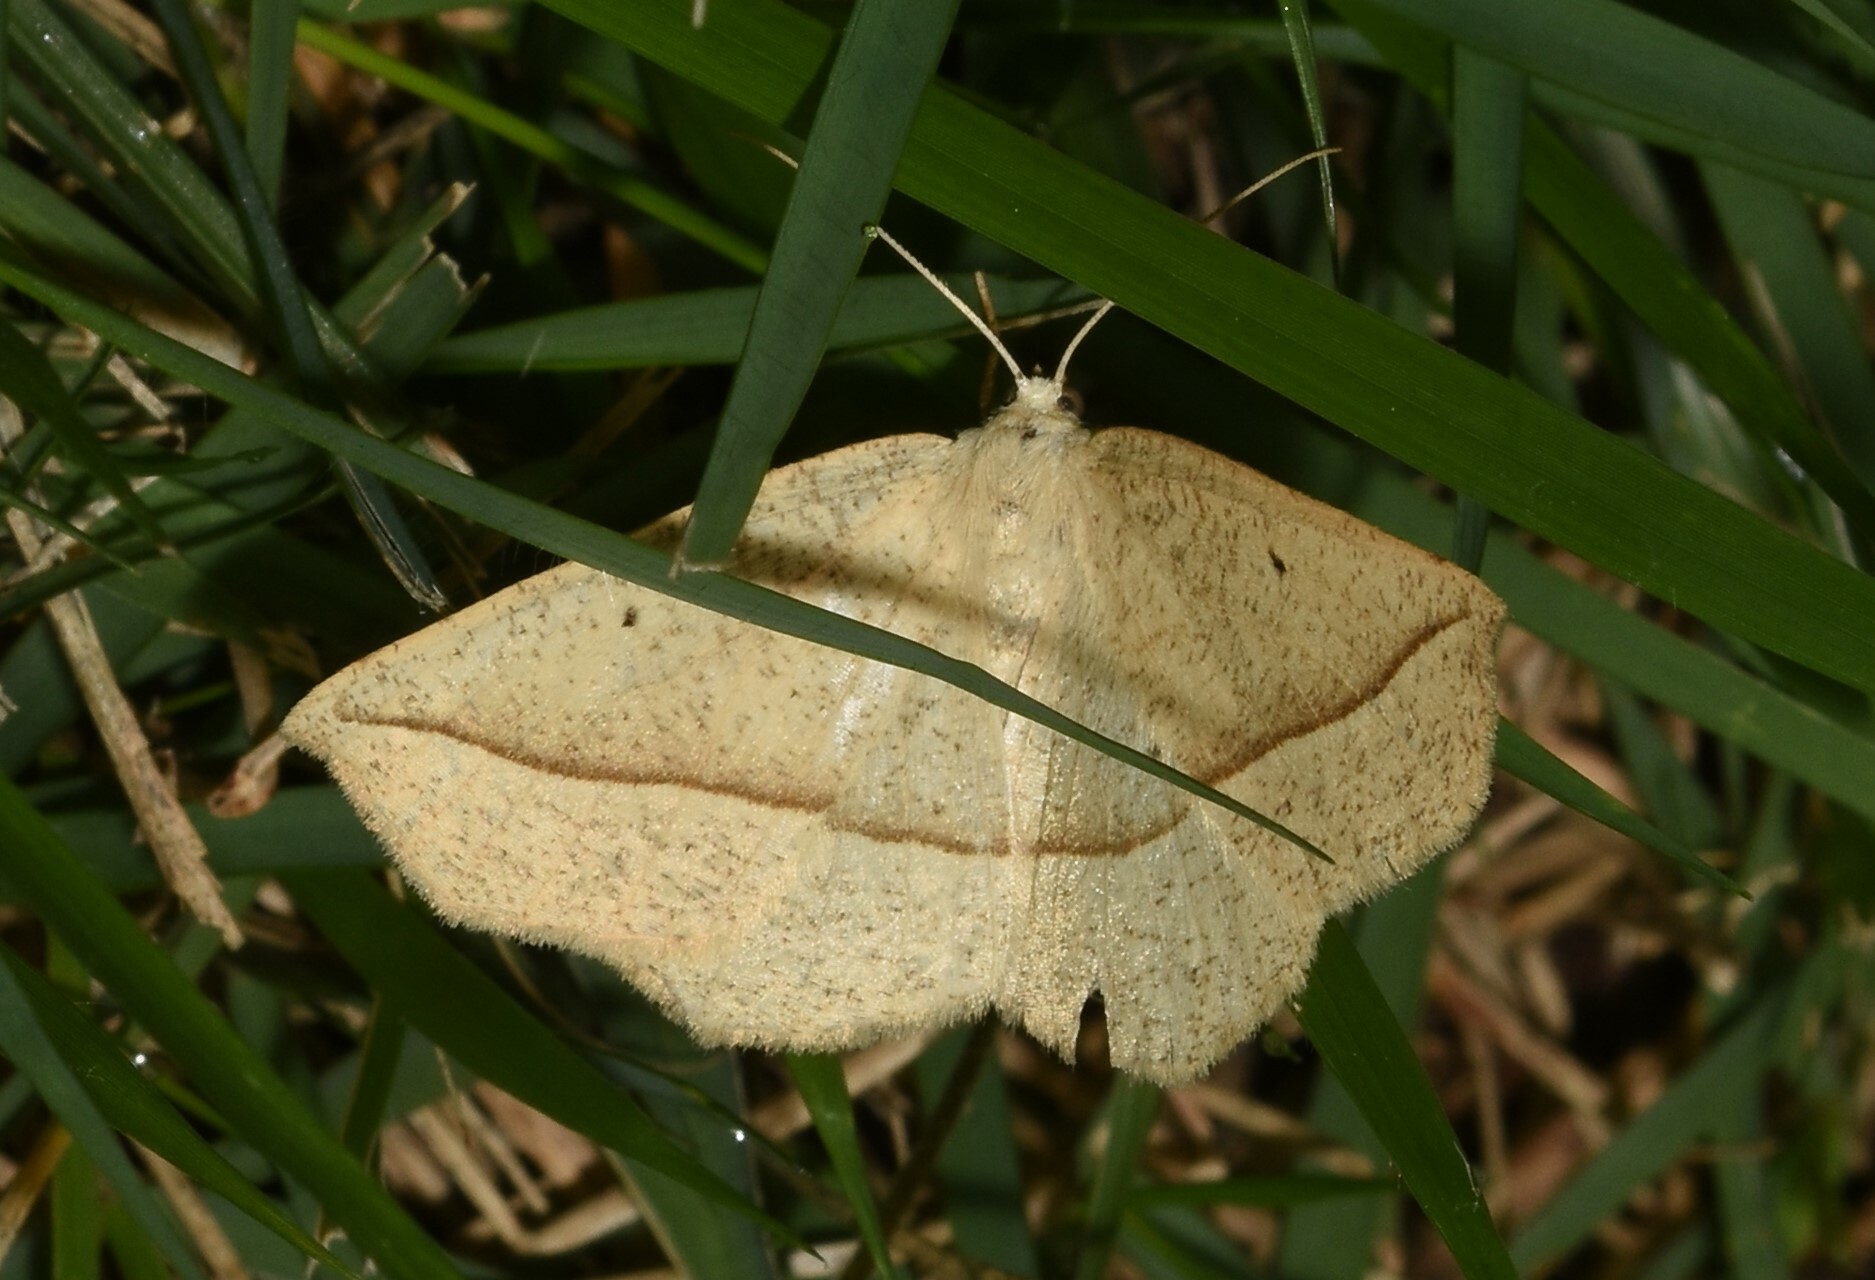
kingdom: Animalia
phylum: Arthropoda
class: Insecta
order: Lepidoptera
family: Geometridae
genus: Eusarca
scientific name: Eusarca confusaria
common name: Confused eusarca
